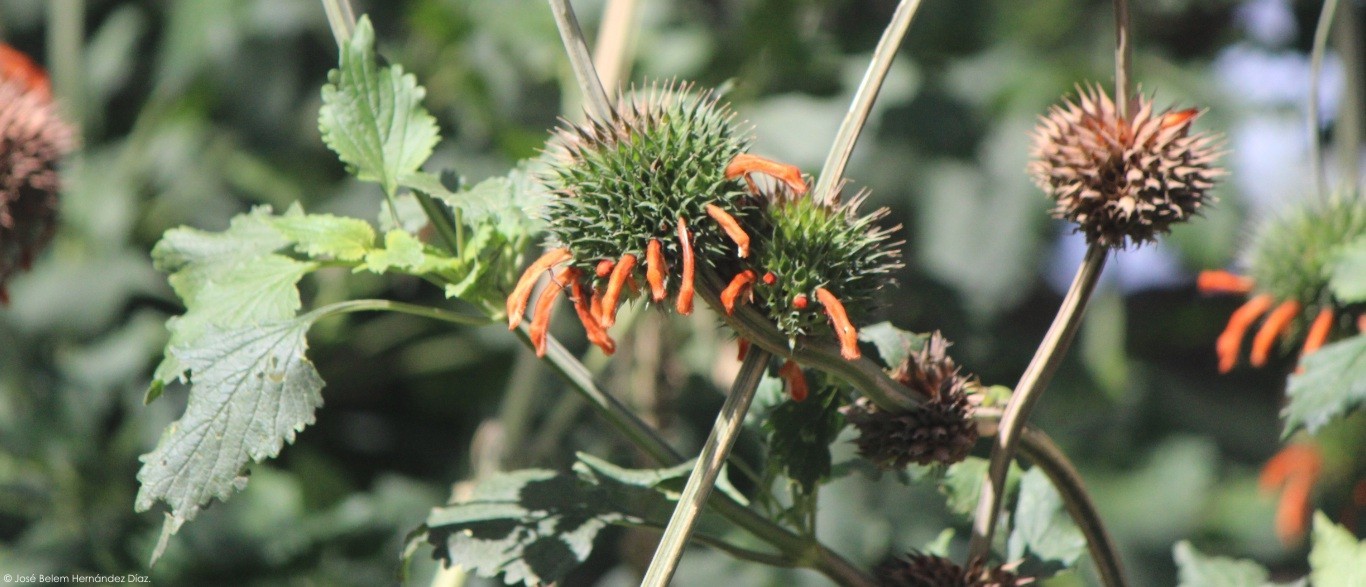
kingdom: Plantae
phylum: Tracheophyta
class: Magnoliopsida
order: Lamiales
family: Lamiaceae
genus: Leonotis
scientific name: Leonotis nepetifolia
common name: Christmas candlestick
